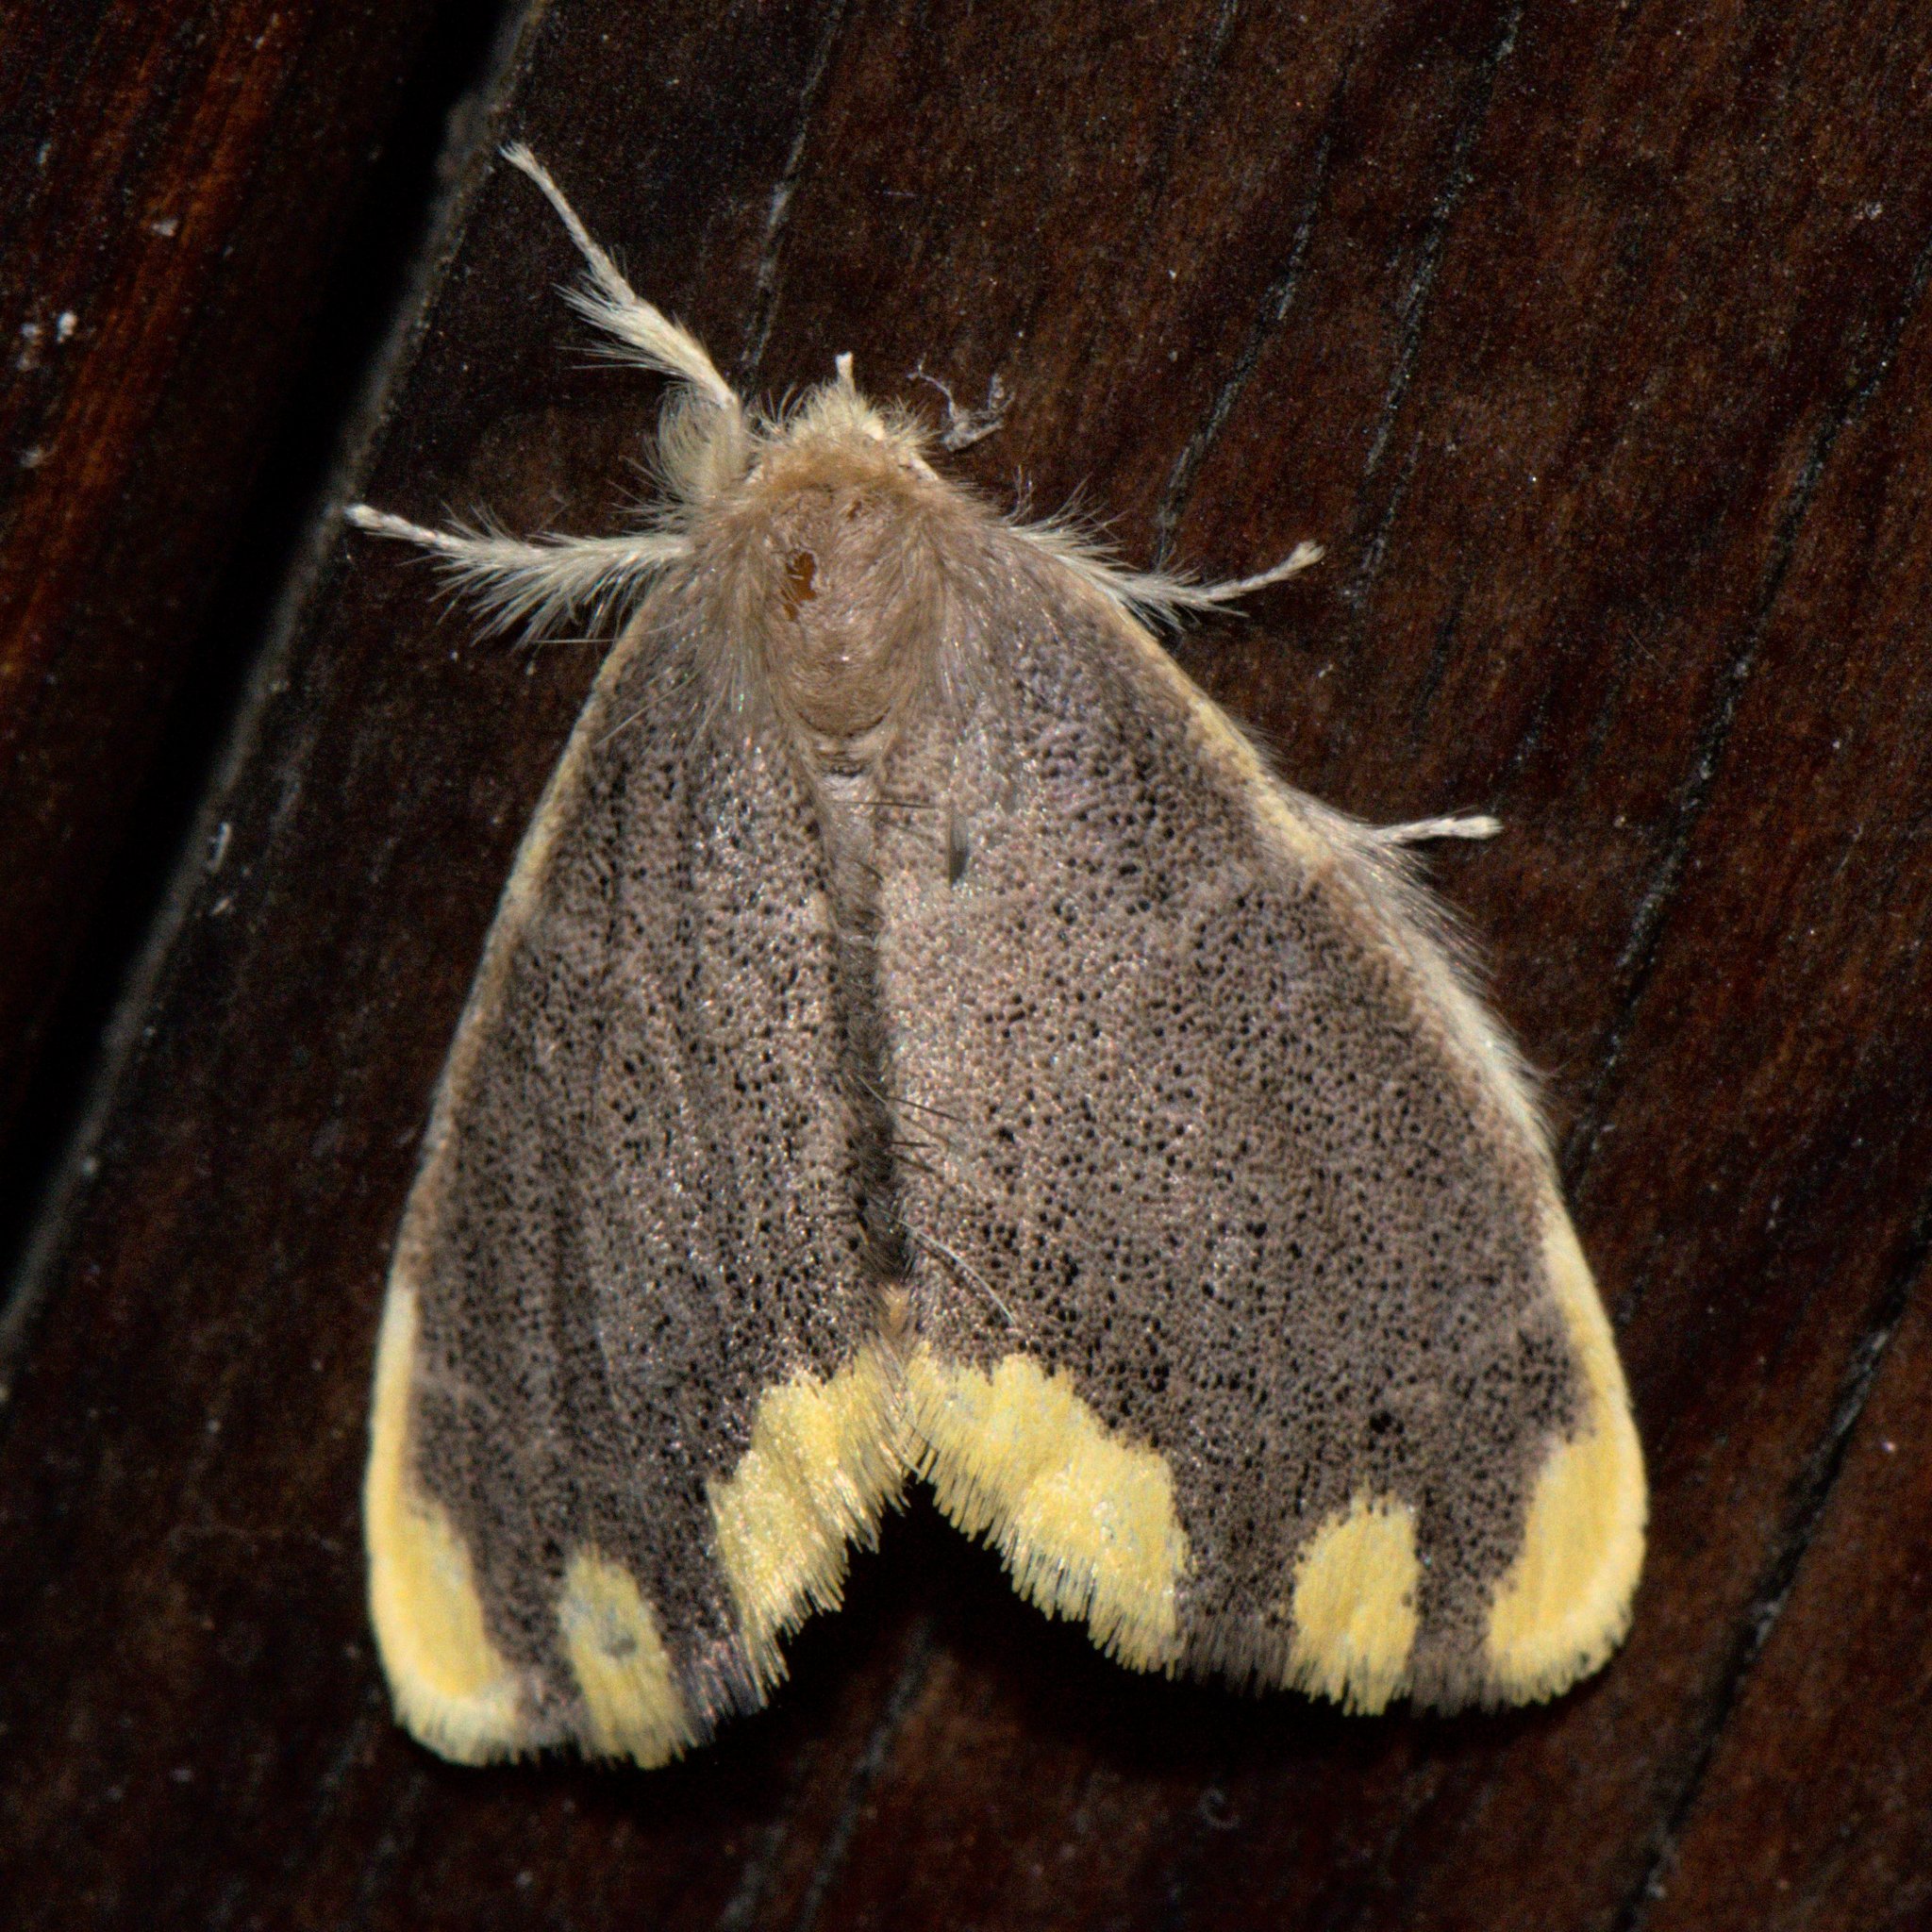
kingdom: Animalia
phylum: Arthropoda
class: Insecta
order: Lepidoptera
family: Erebidae
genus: Orvasca
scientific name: Orvasca subnotata
